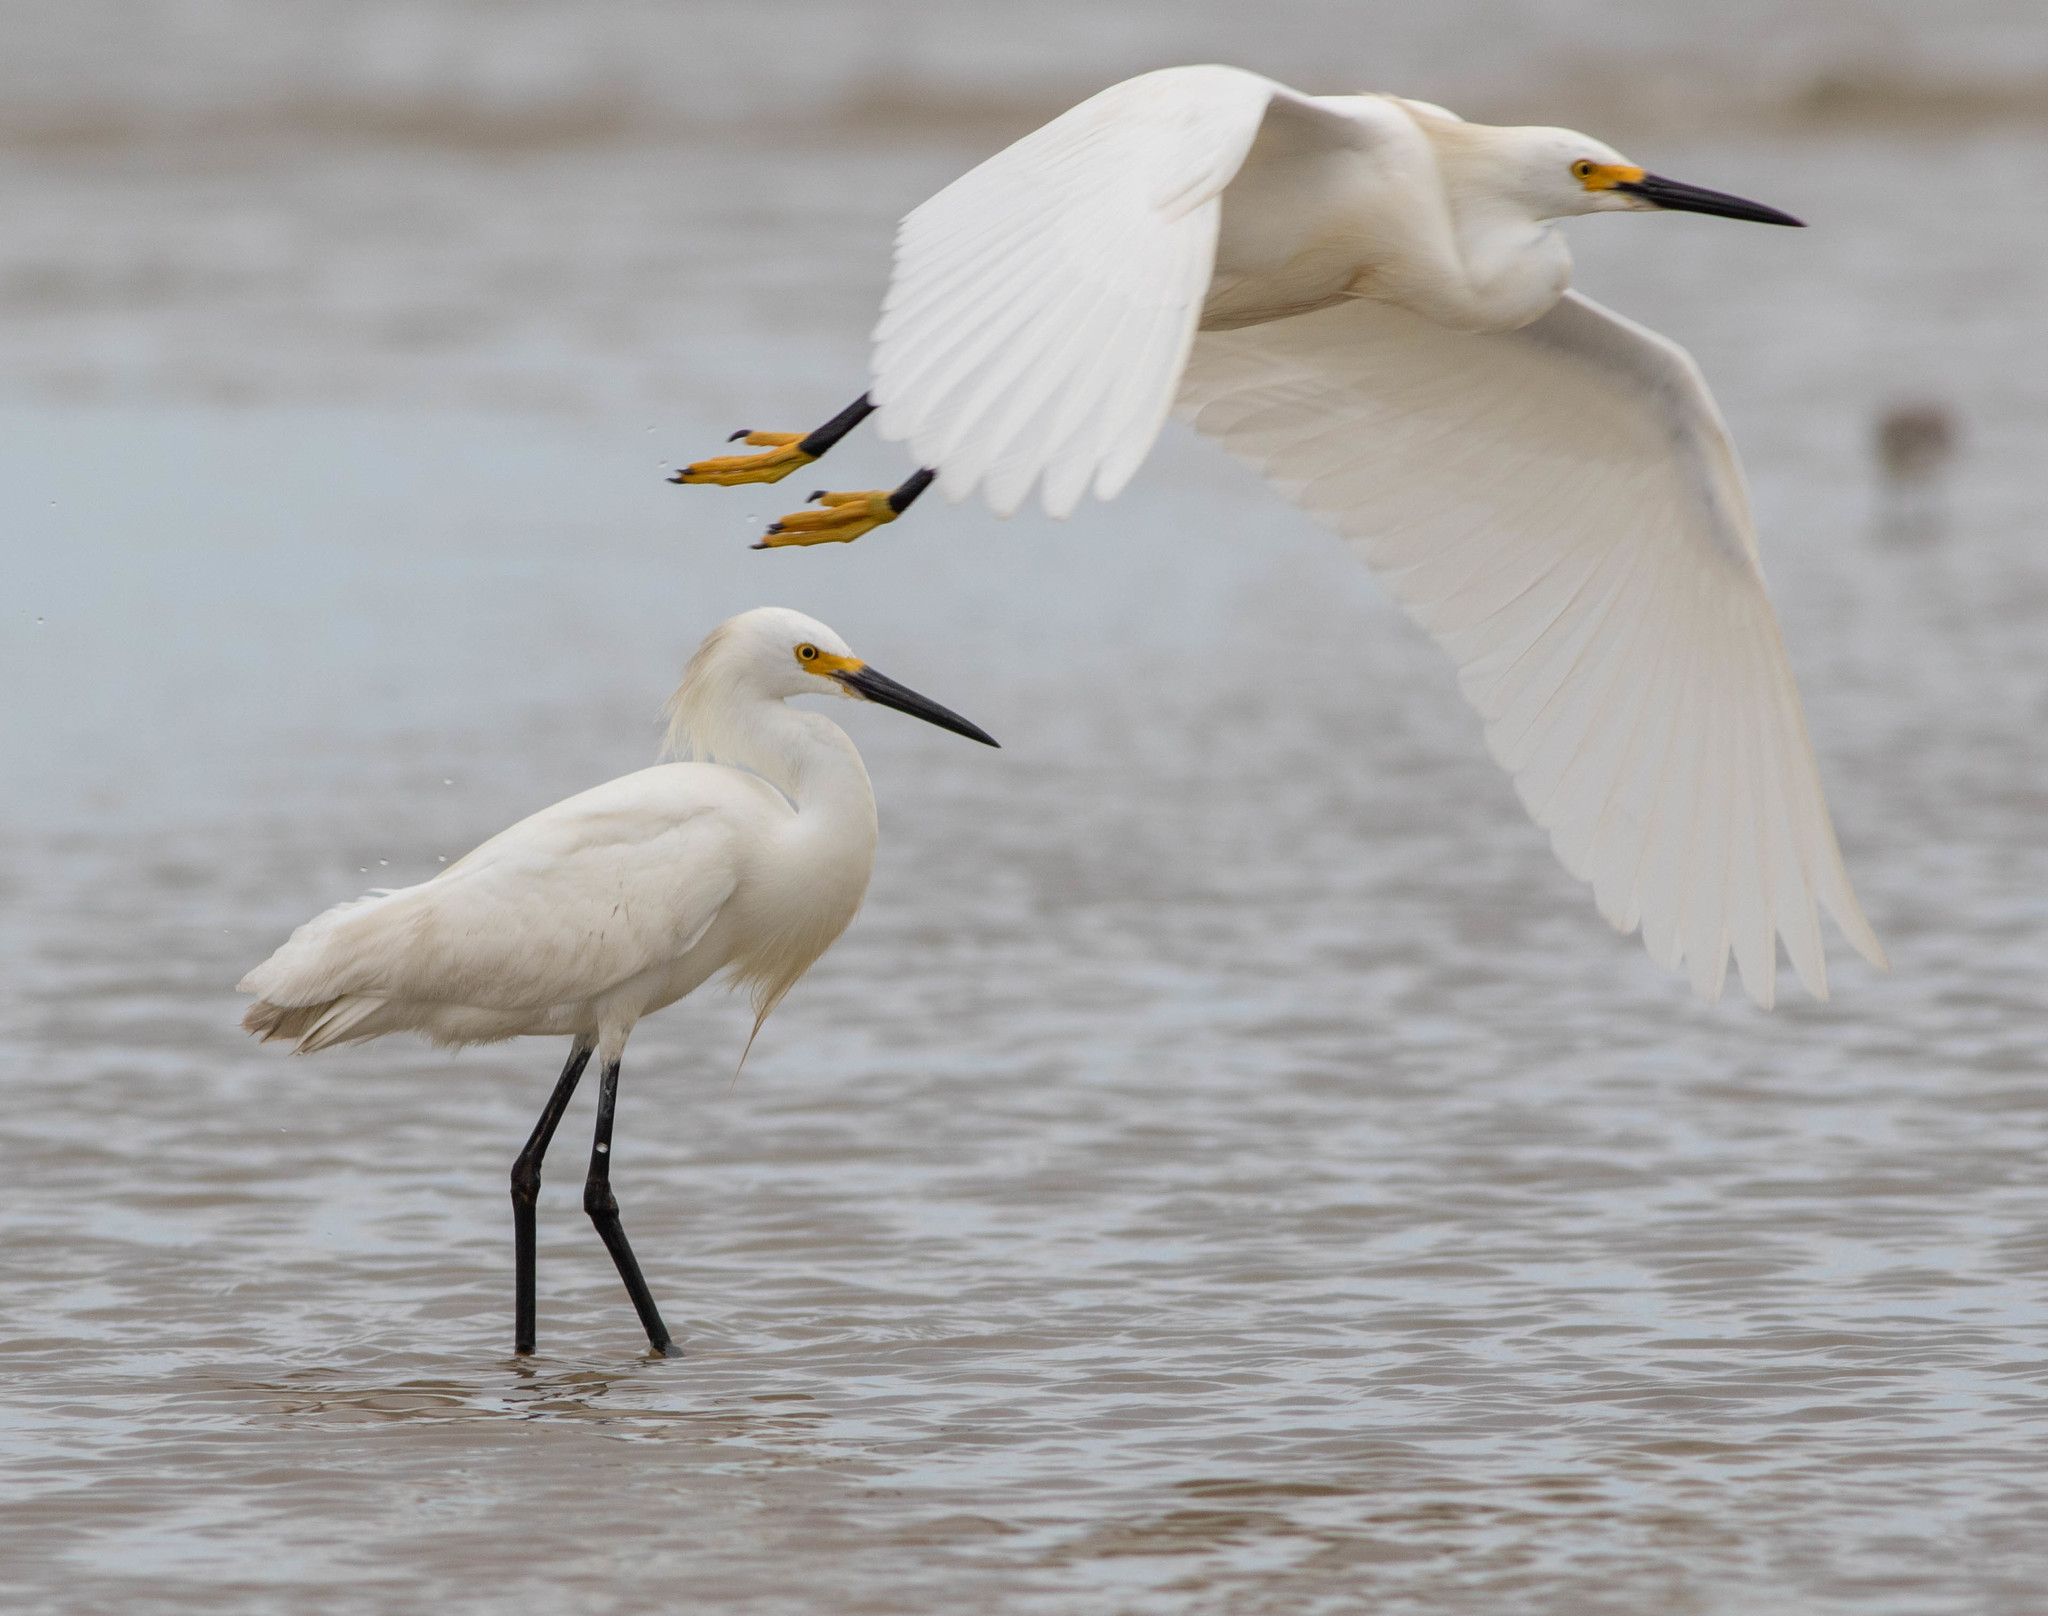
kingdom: Animalia
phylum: Chordata
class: Aves
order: Pelecaniformes
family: Ardeidae
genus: Egretta
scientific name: Egretta thula
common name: Snowy egret
